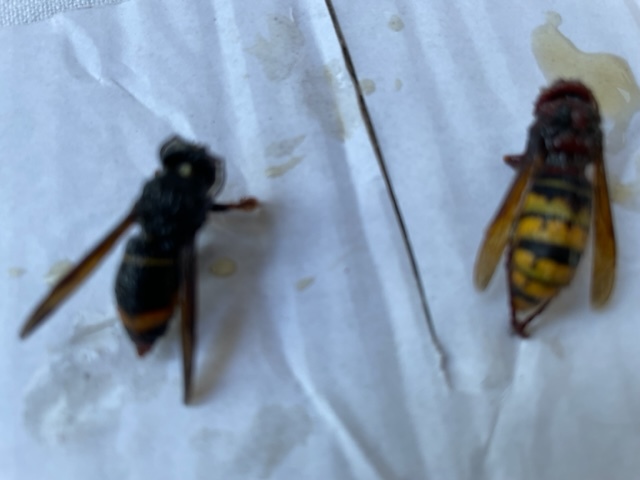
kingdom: Animalia
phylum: Arthropoda
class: Insecta
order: Hymenoptera
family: Vespidae
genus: Vespa
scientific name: Vespa velutina
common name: Asian hornet
